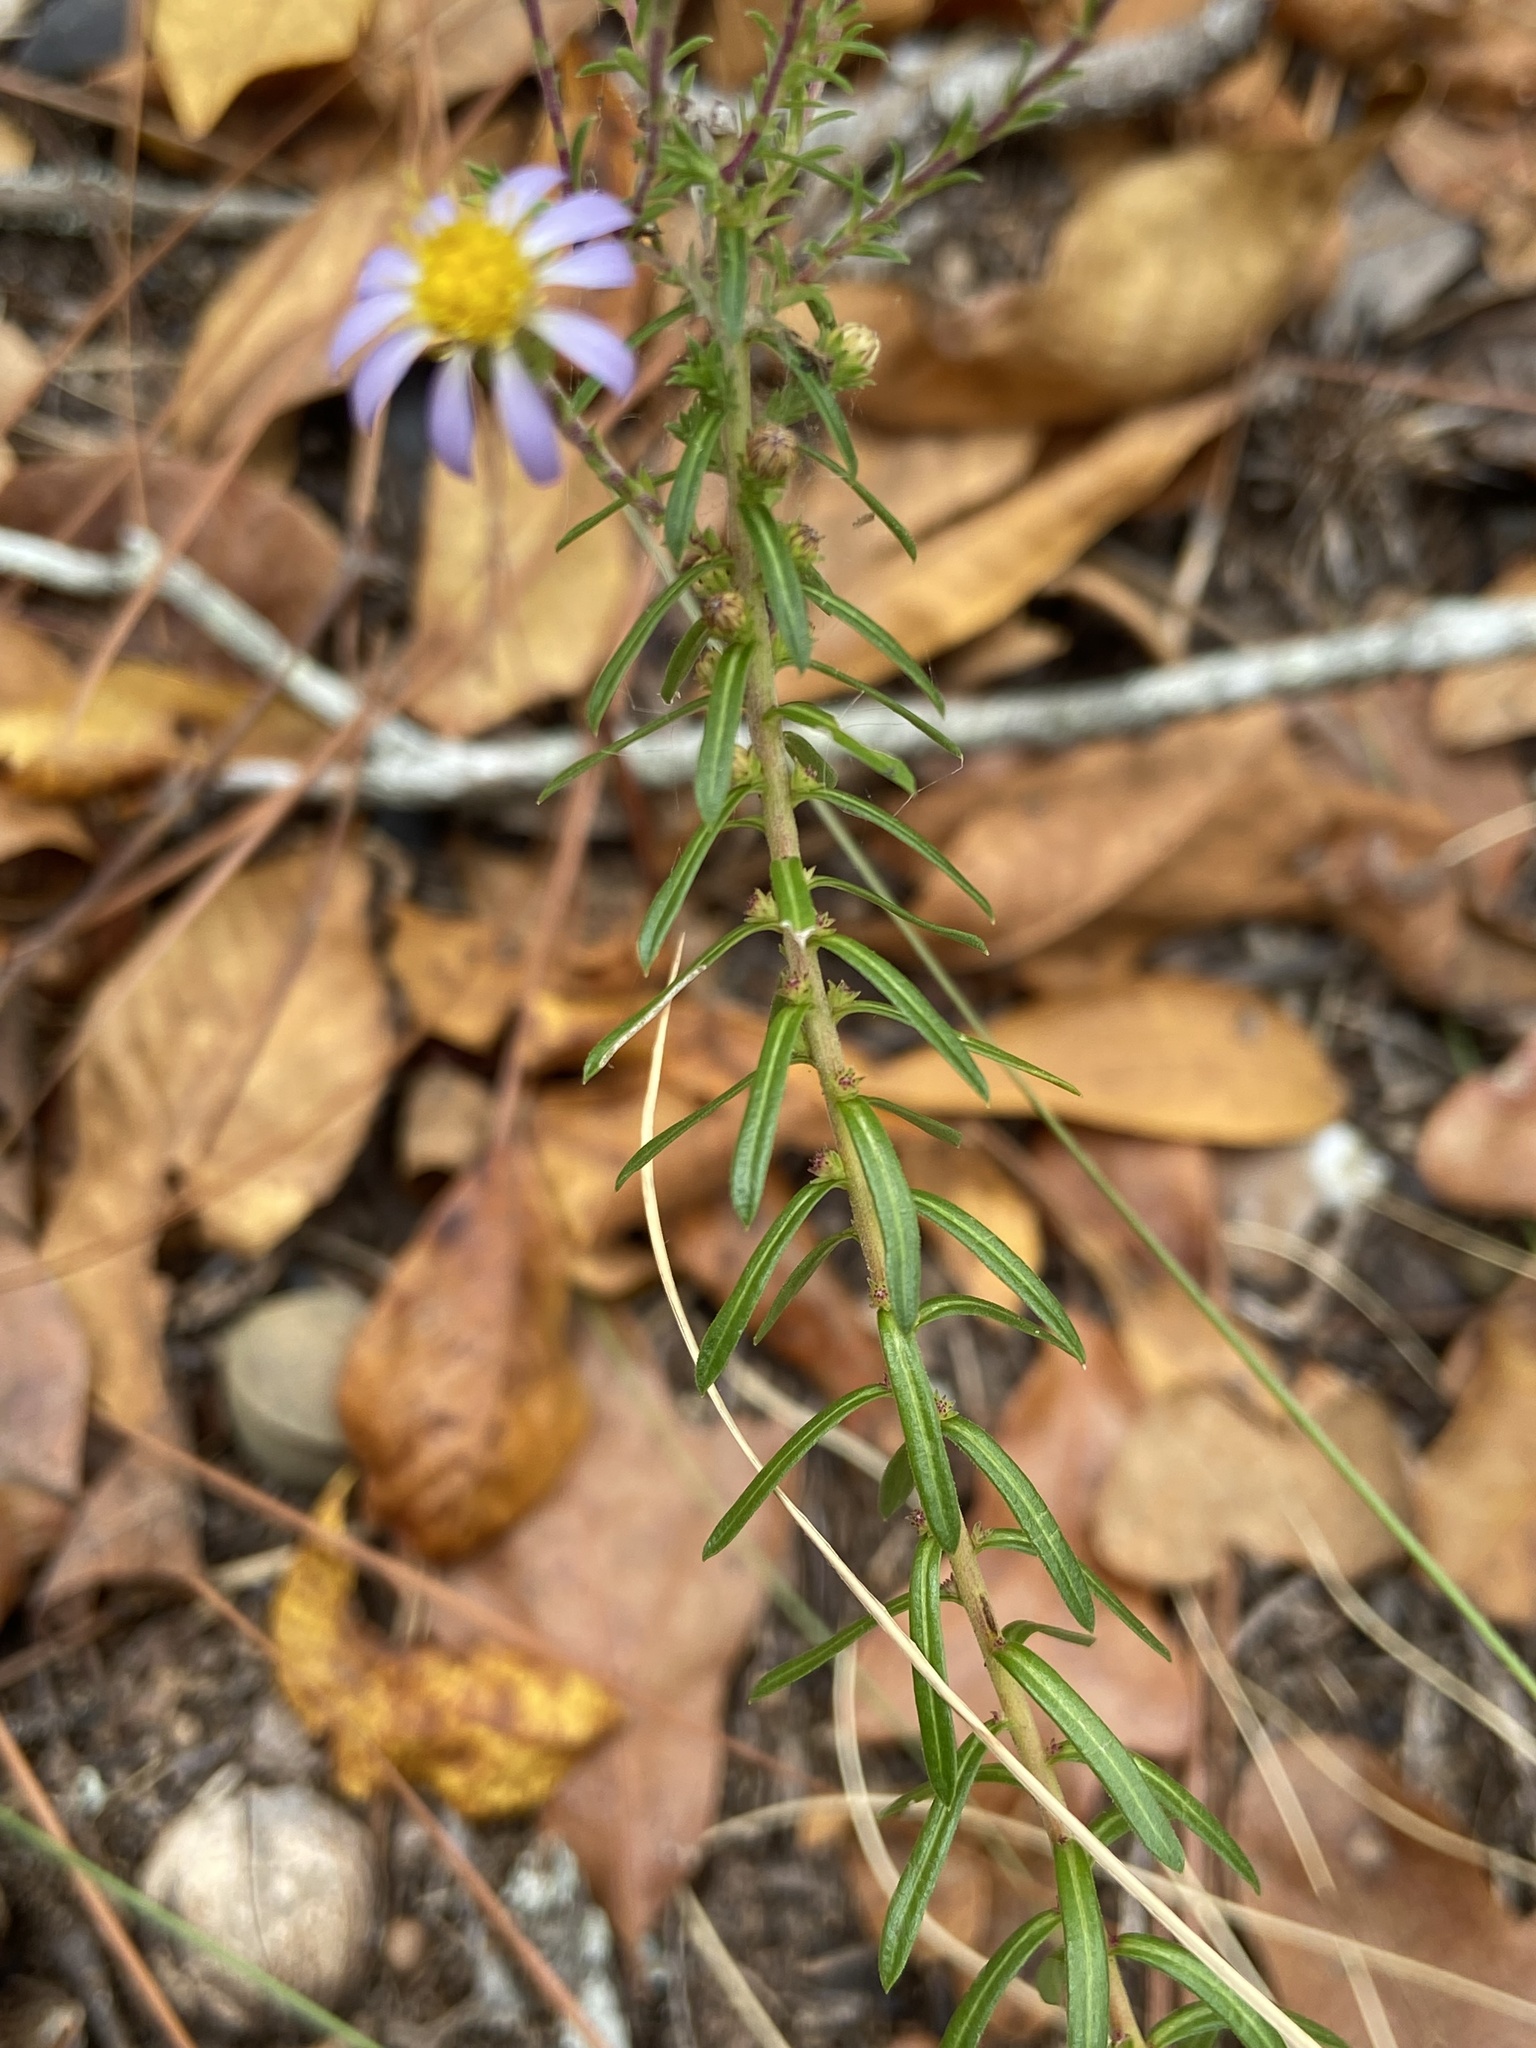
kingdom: Plantae
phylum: Tracheophyta
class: Magnoliopsida
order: Asterales
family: Asteraceae
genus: Ionactis
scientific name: Ionactis linariifolia
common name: Flax-leaf aster
